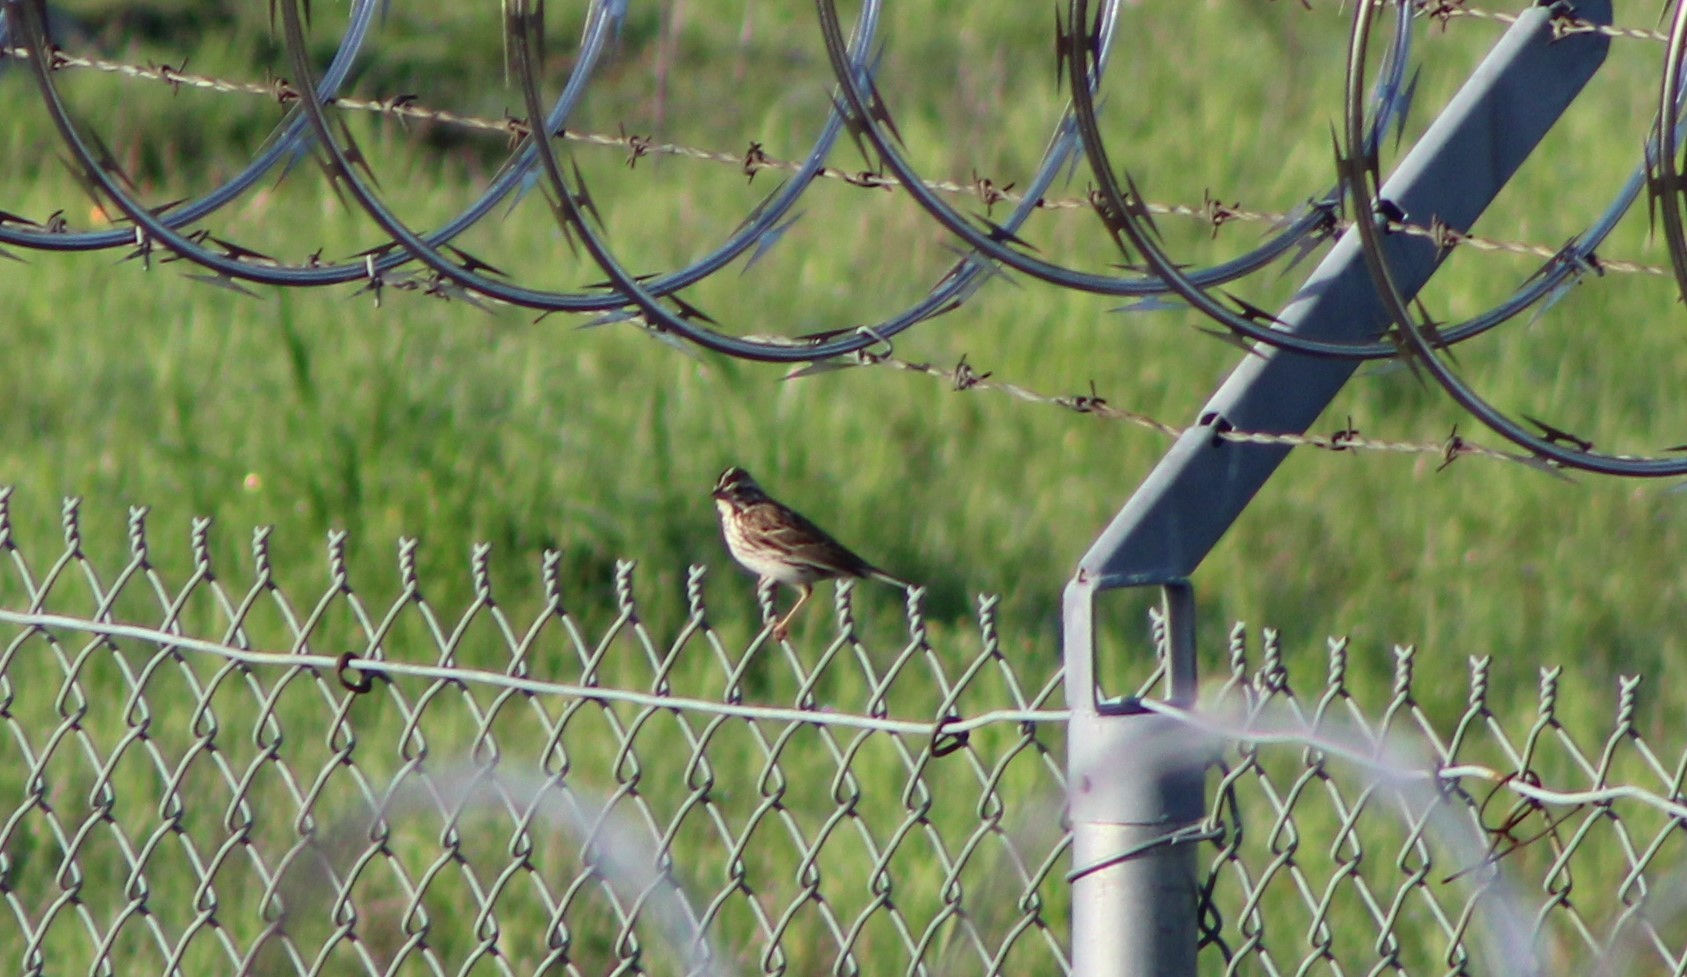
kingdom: Animalia
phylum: Chordata
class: Aves
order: Passeriformes
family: Passerellidae
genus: Passerculus
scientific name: Passerculus sandwichensis
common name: Savannah sparrow
